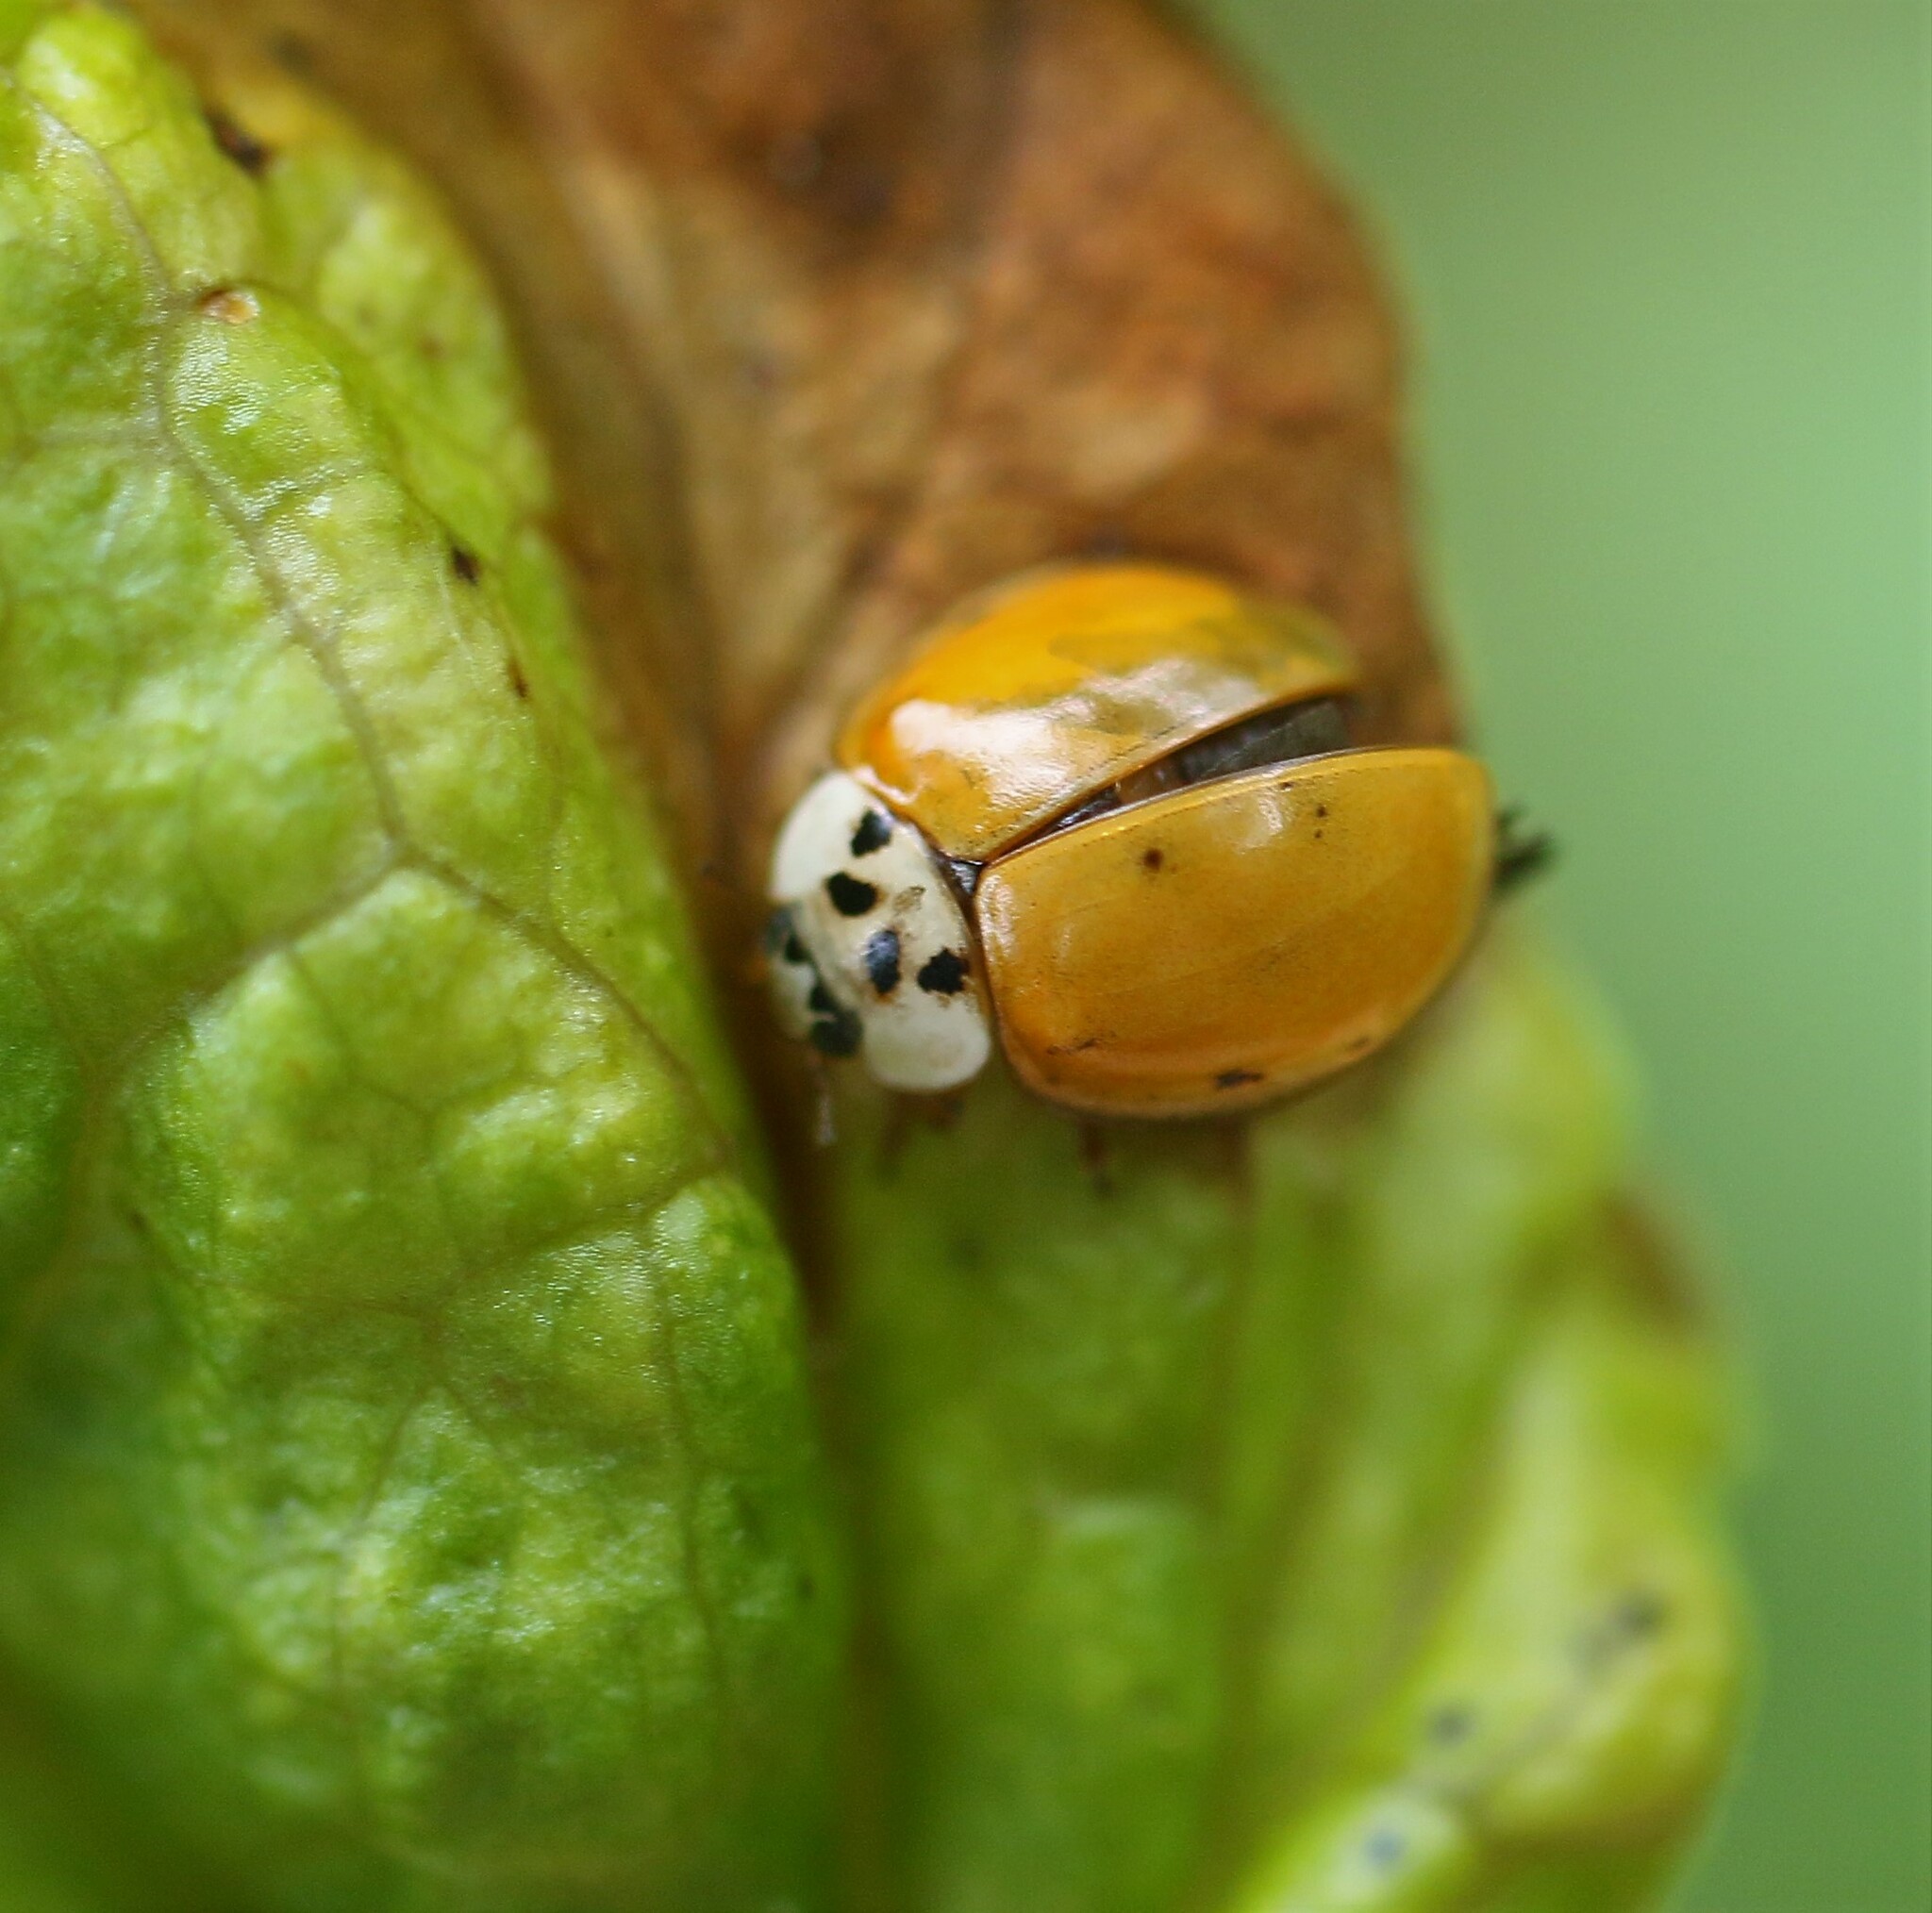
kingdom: Animalia
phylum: Arthropoda
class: Insecta
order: Coleoptera
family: Coccinellidae
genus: Harmonia
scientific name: Harmonia axyridis
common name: Harlequin ladybird
